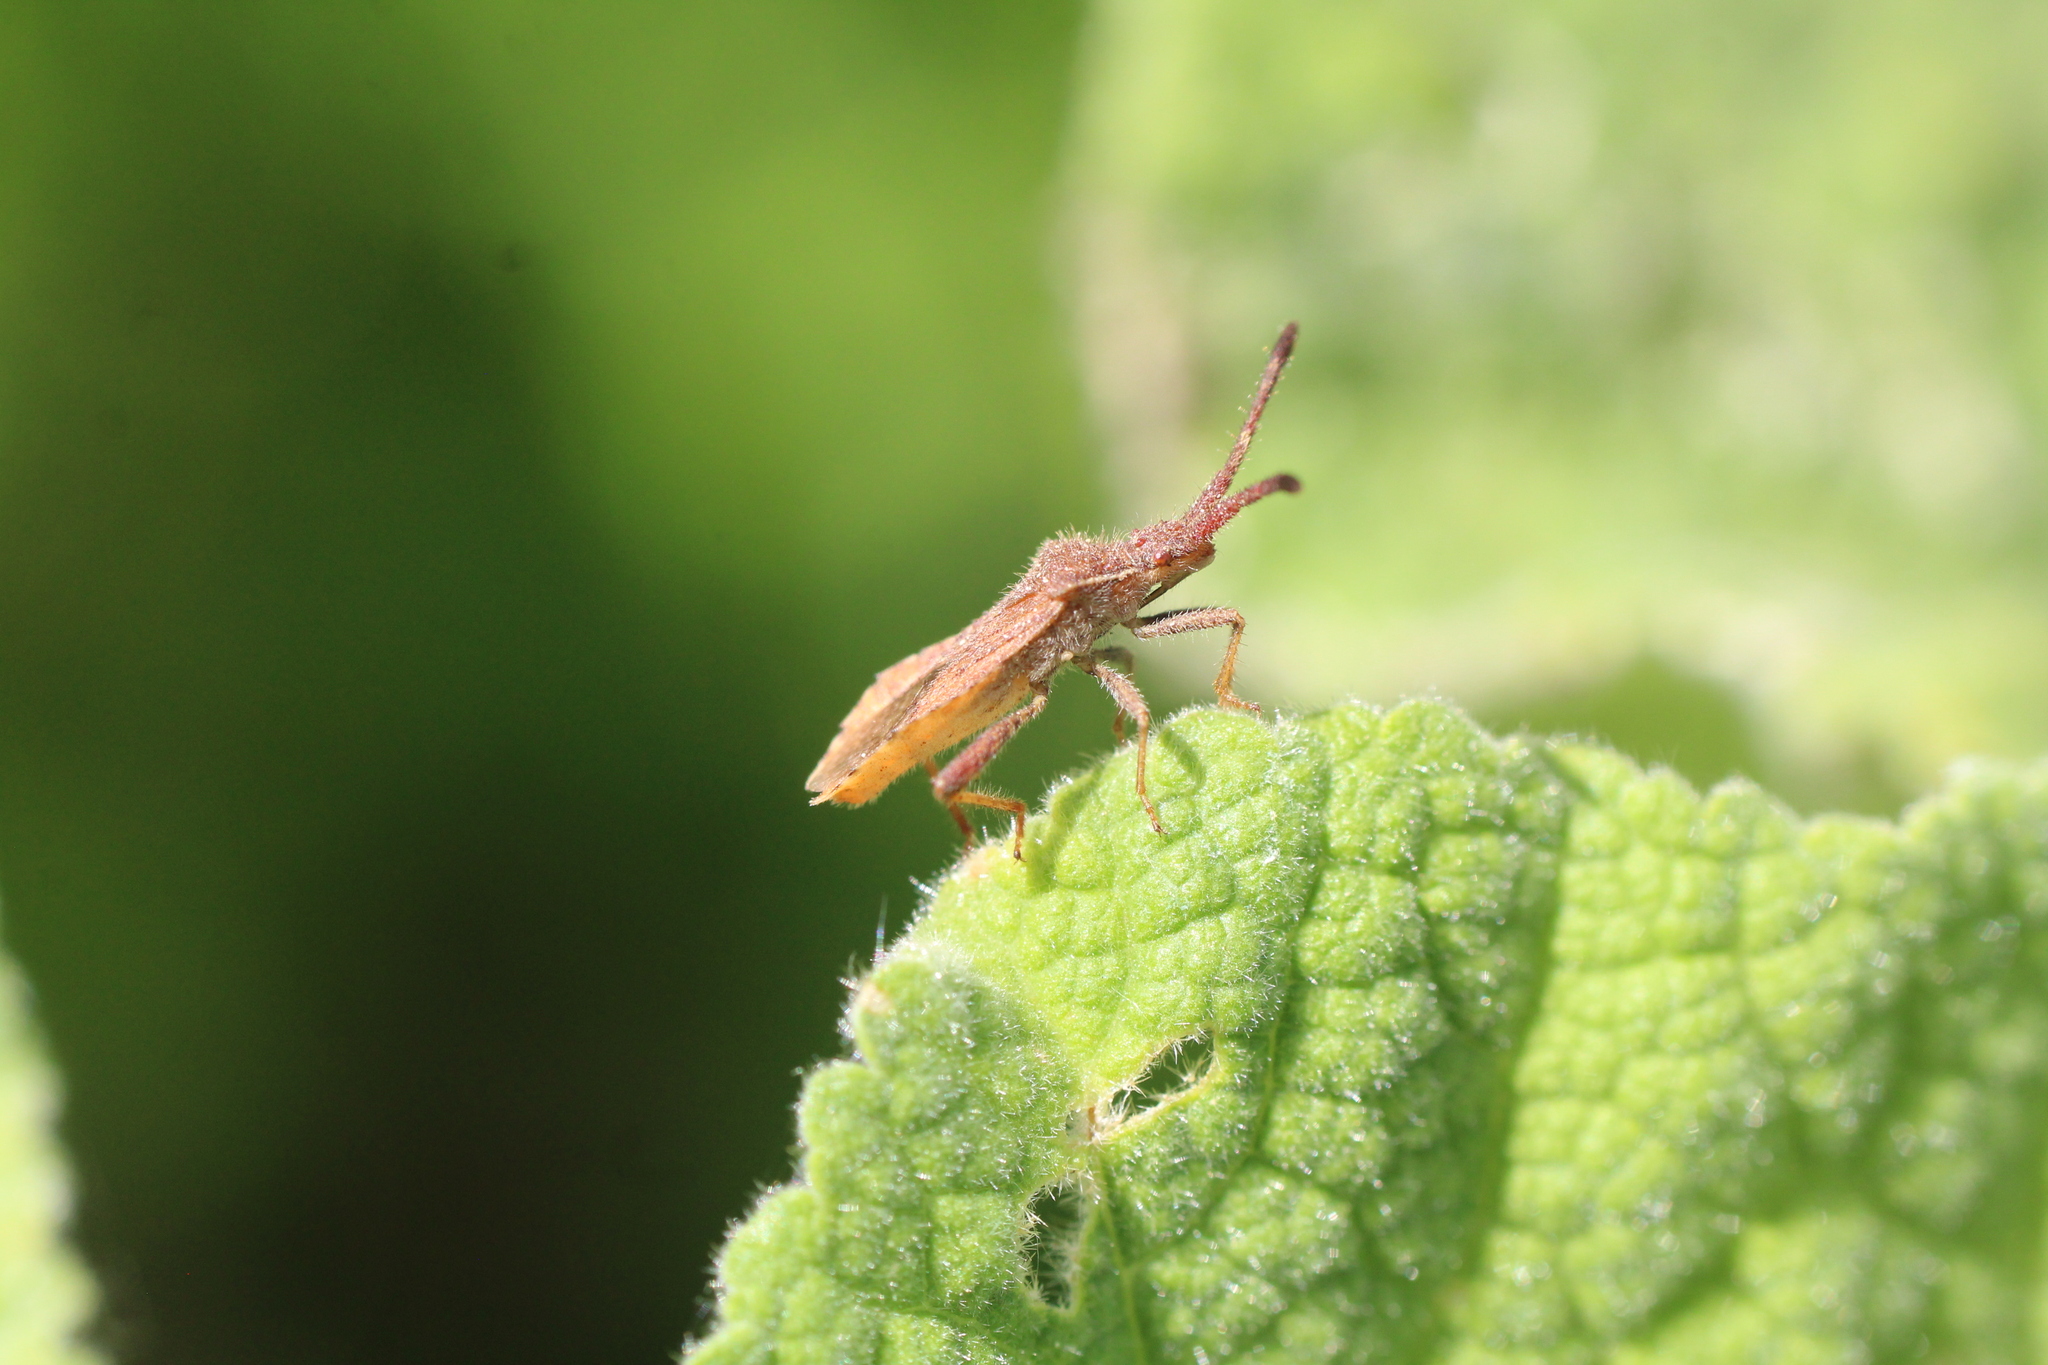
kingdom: Animalia
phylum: Arthropoda
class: Insecta
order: Hemiptera
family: Coreidae
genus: Coriomeris
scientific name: Coriomeris denticulatus
